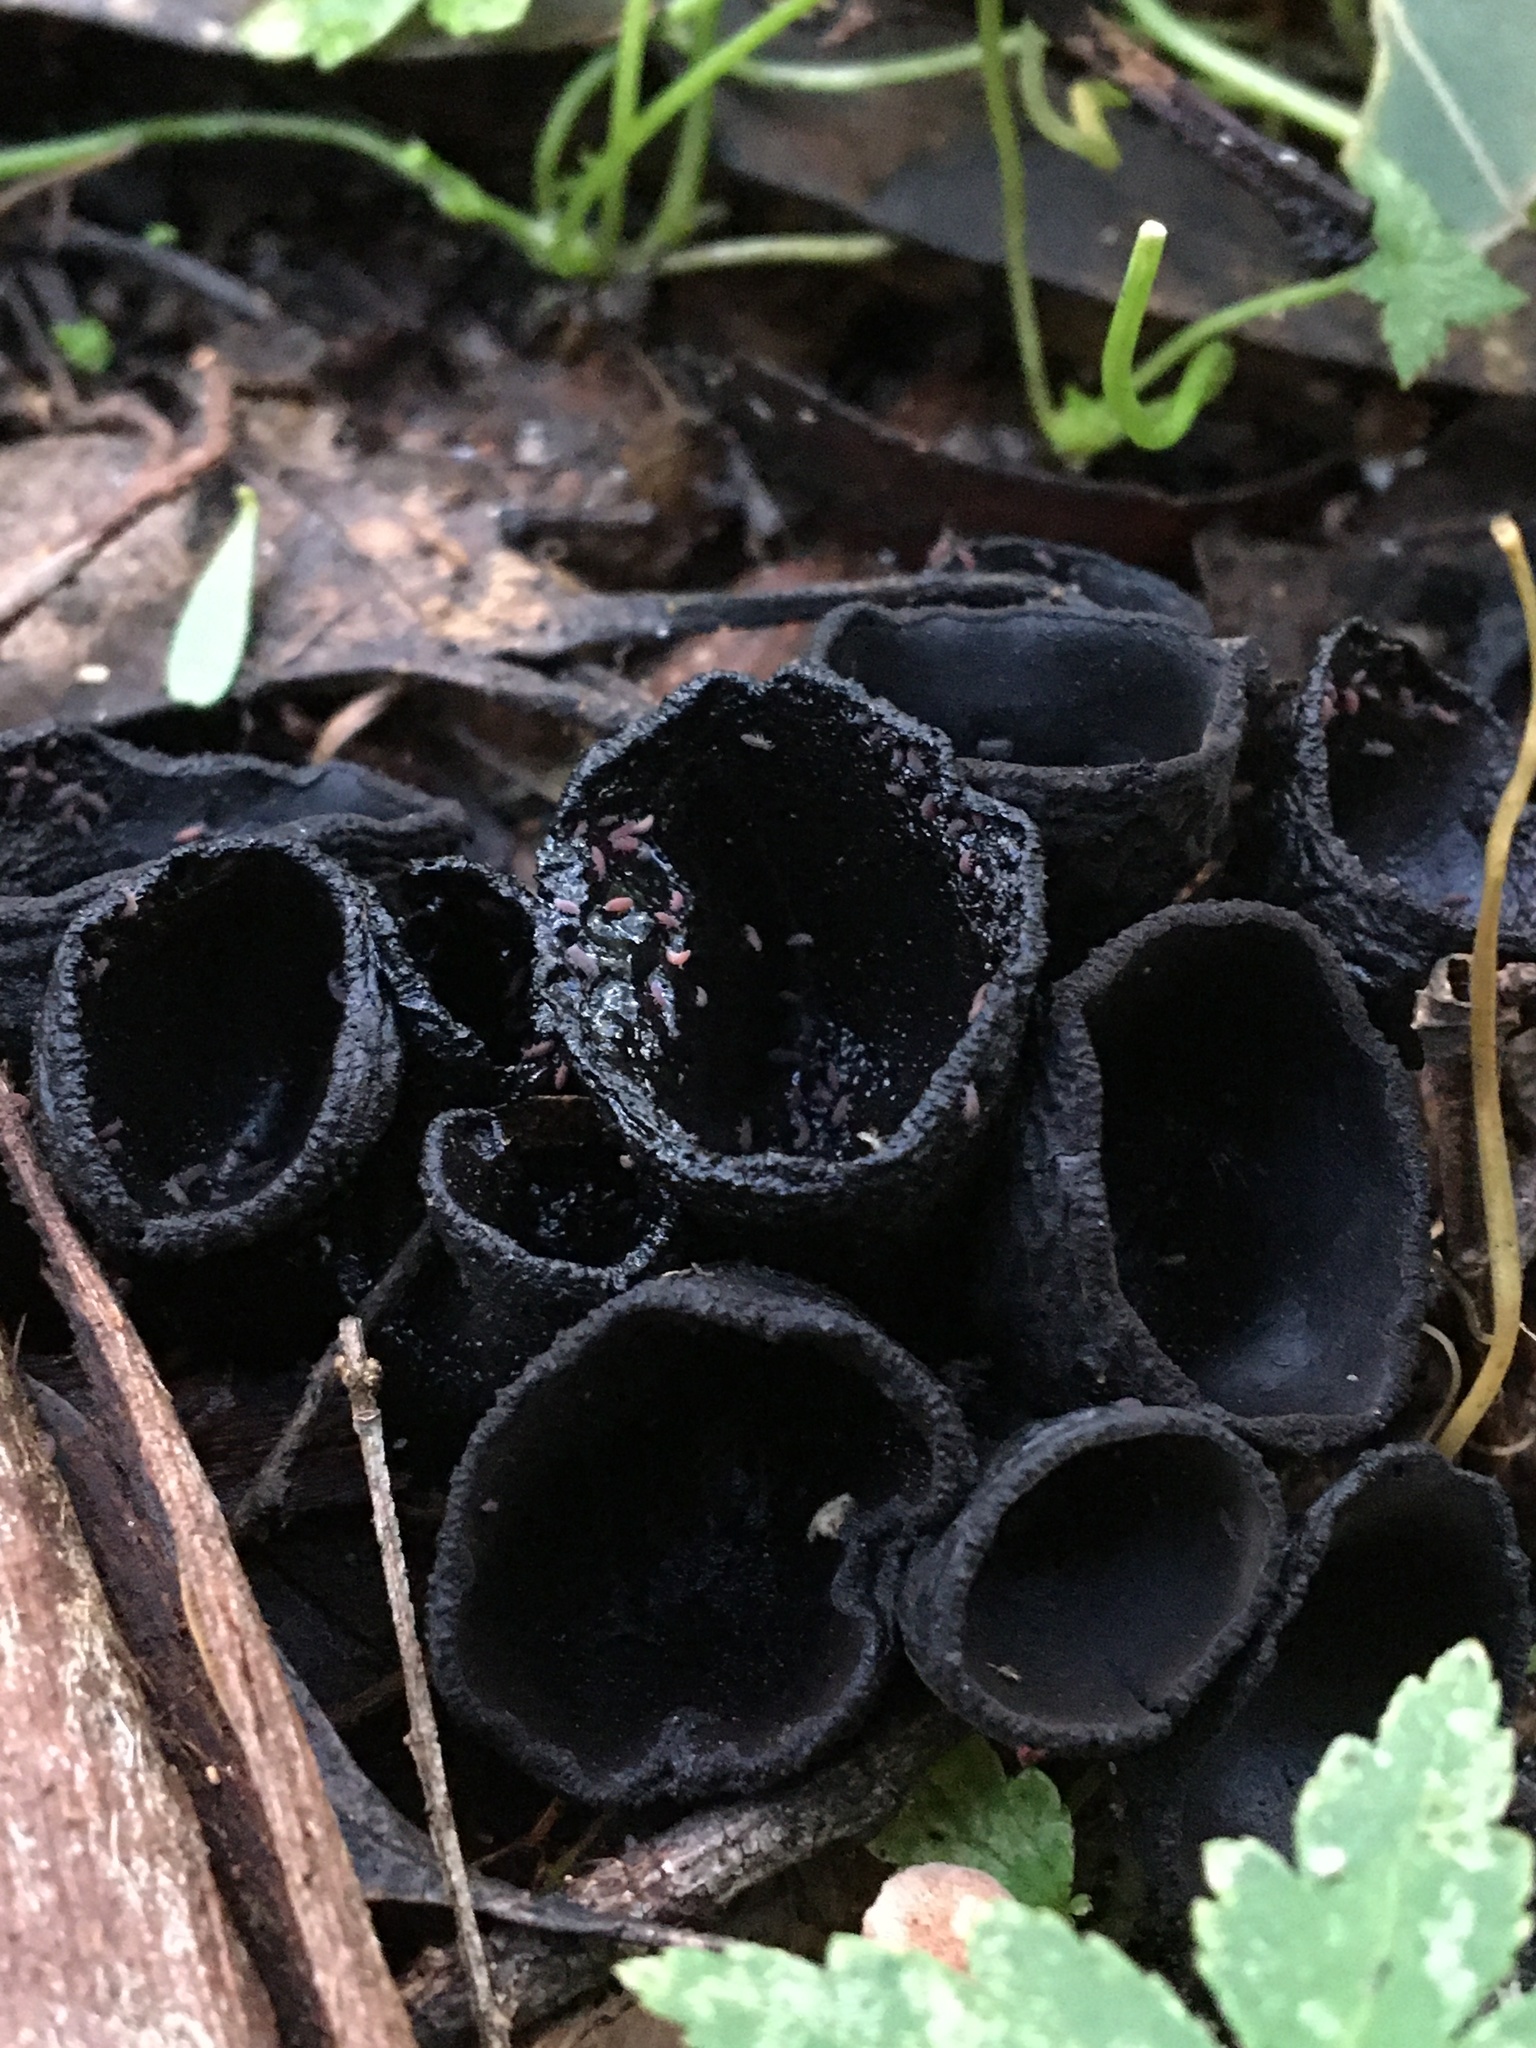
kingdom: Fungi
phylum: Ascomycota
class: Pezizomycetes
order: Pezizales
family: Sarcosomataceae
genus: Plectania
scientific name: Plectania campylospora
